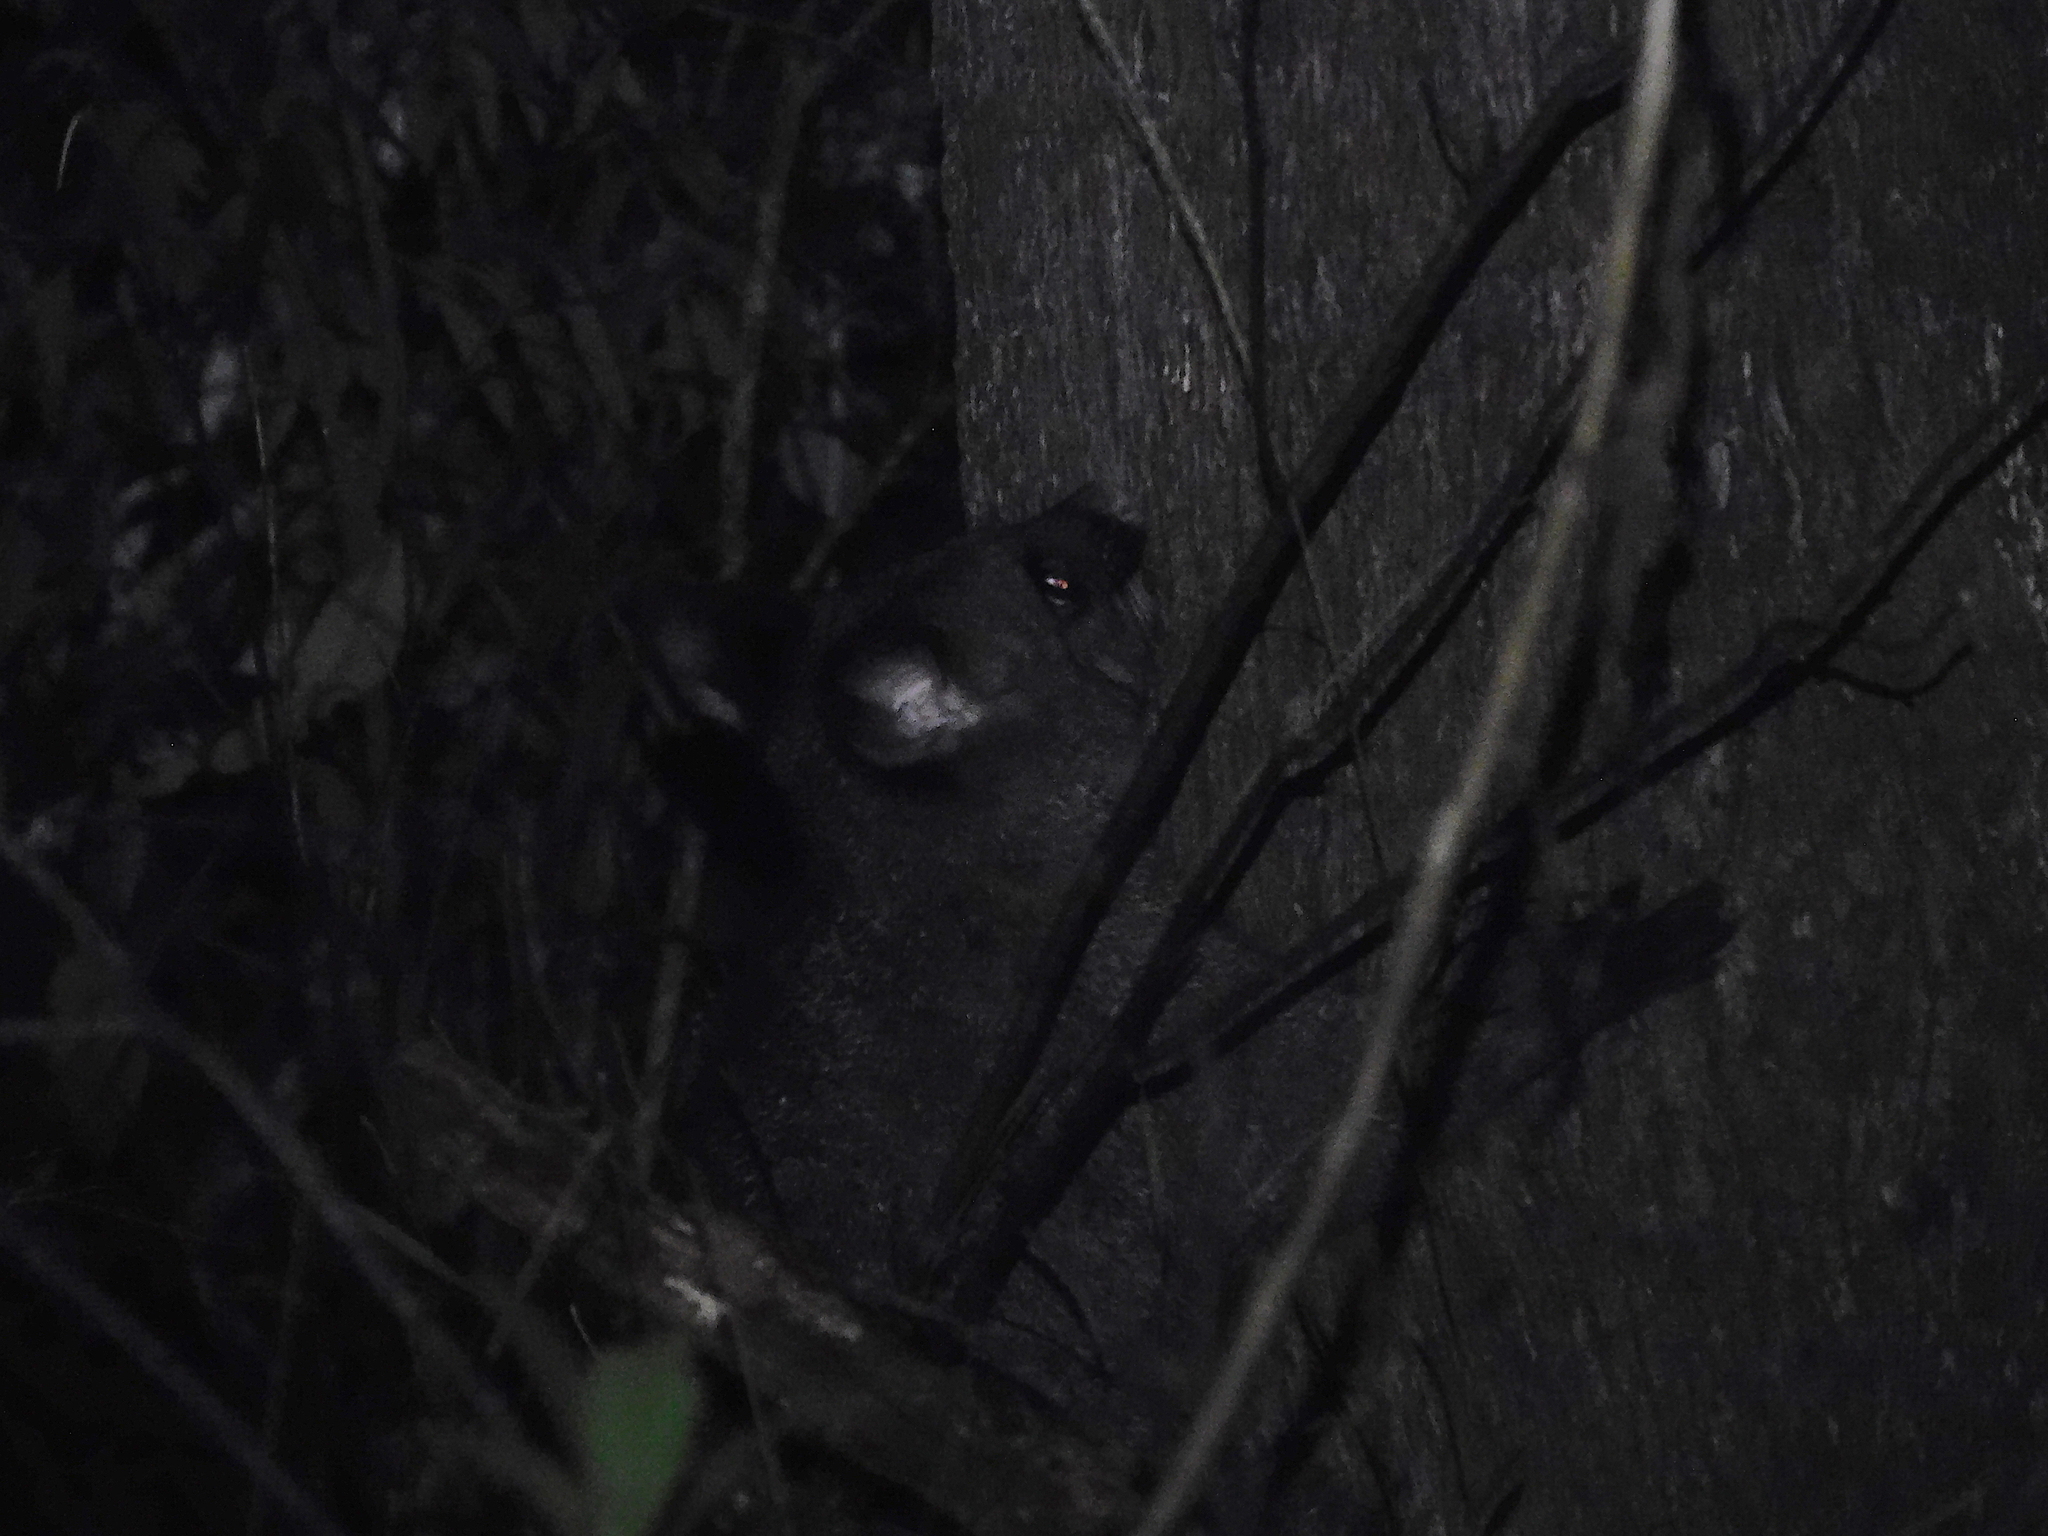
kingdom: Animalia
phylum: Chordata
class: Mammalia
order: Diprotodontia
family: Phalangeridae
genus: Trichosurus
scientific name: Trichosurus vulpecula
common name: Common brushtail
